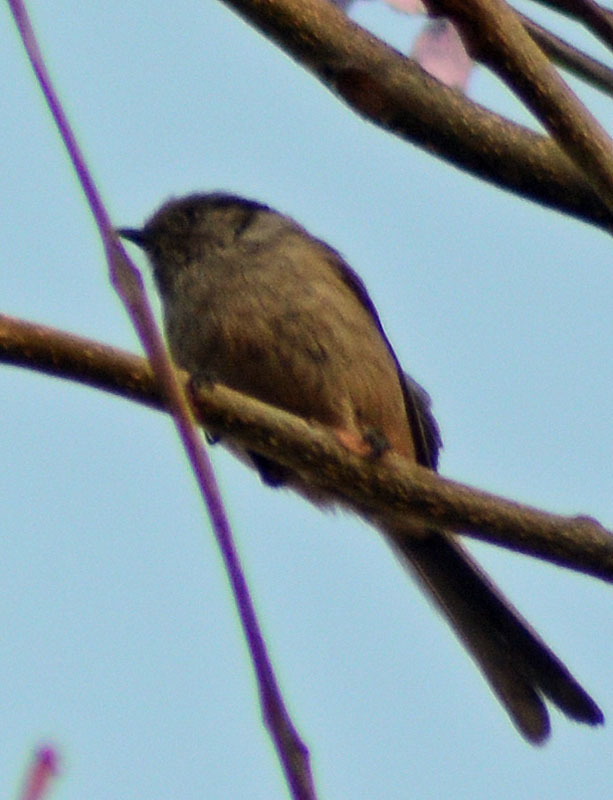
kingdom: Animalia
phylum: Chordata
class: Aves
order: Passeriformes
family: Aegithalidae
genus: Psaltriparus
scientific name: Psaltriparus minimus
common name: American bushtit
